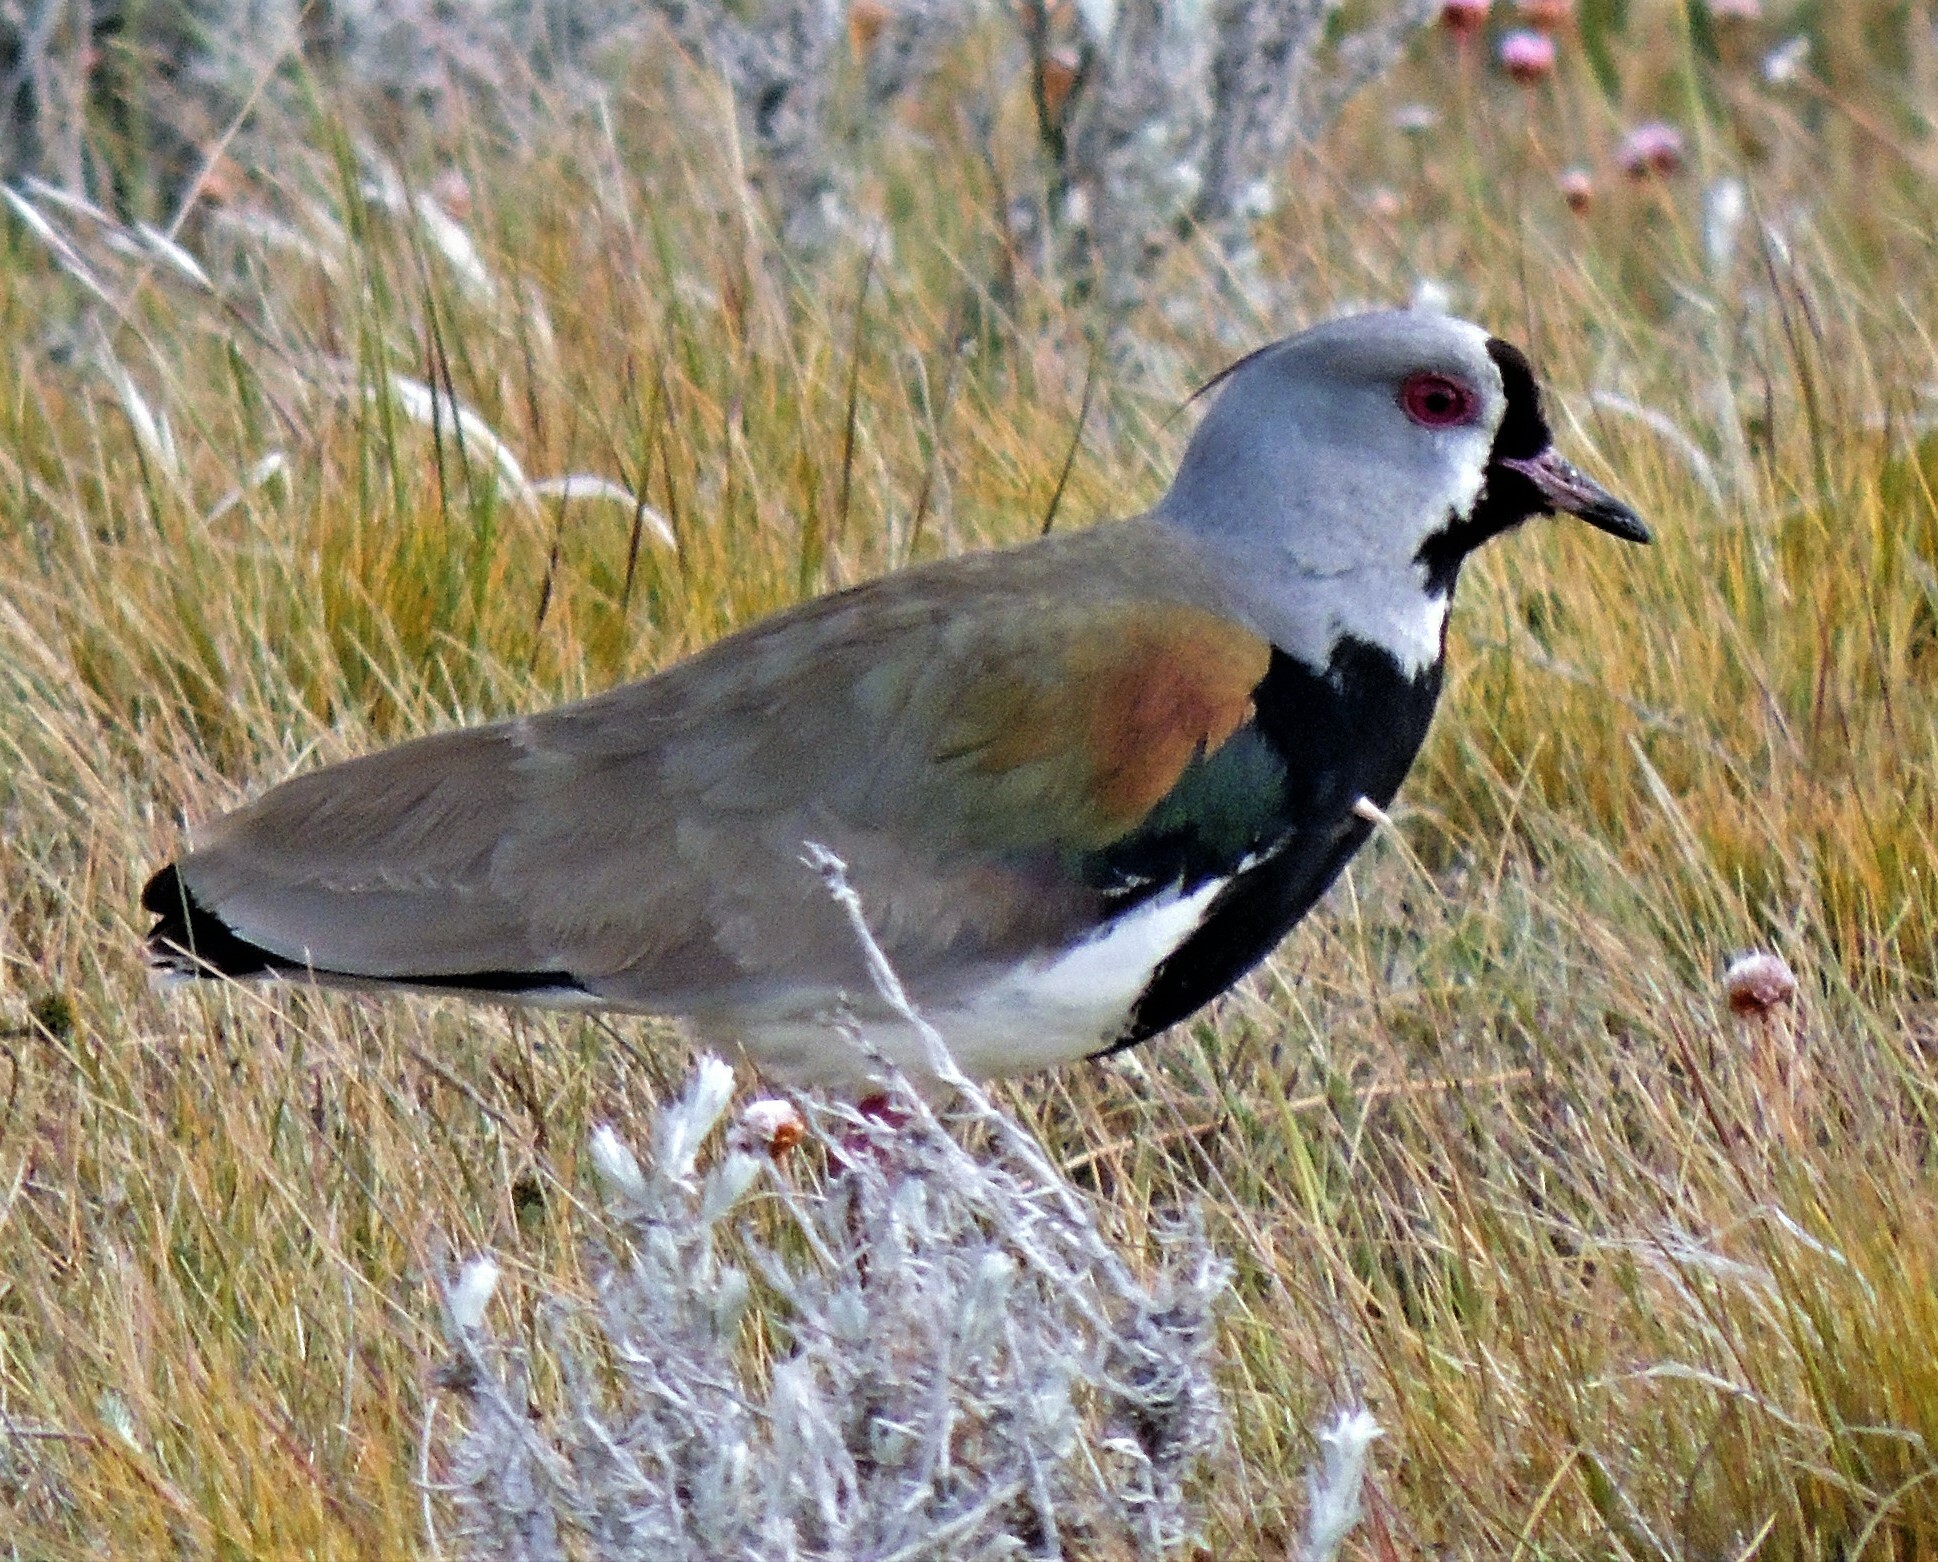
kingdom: Animalia
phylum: Chordata
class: Aves
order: Charadriiformes
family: Charadriidae
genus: Vanellus
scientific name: Vanellus chilensis
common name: Southern lapwing
